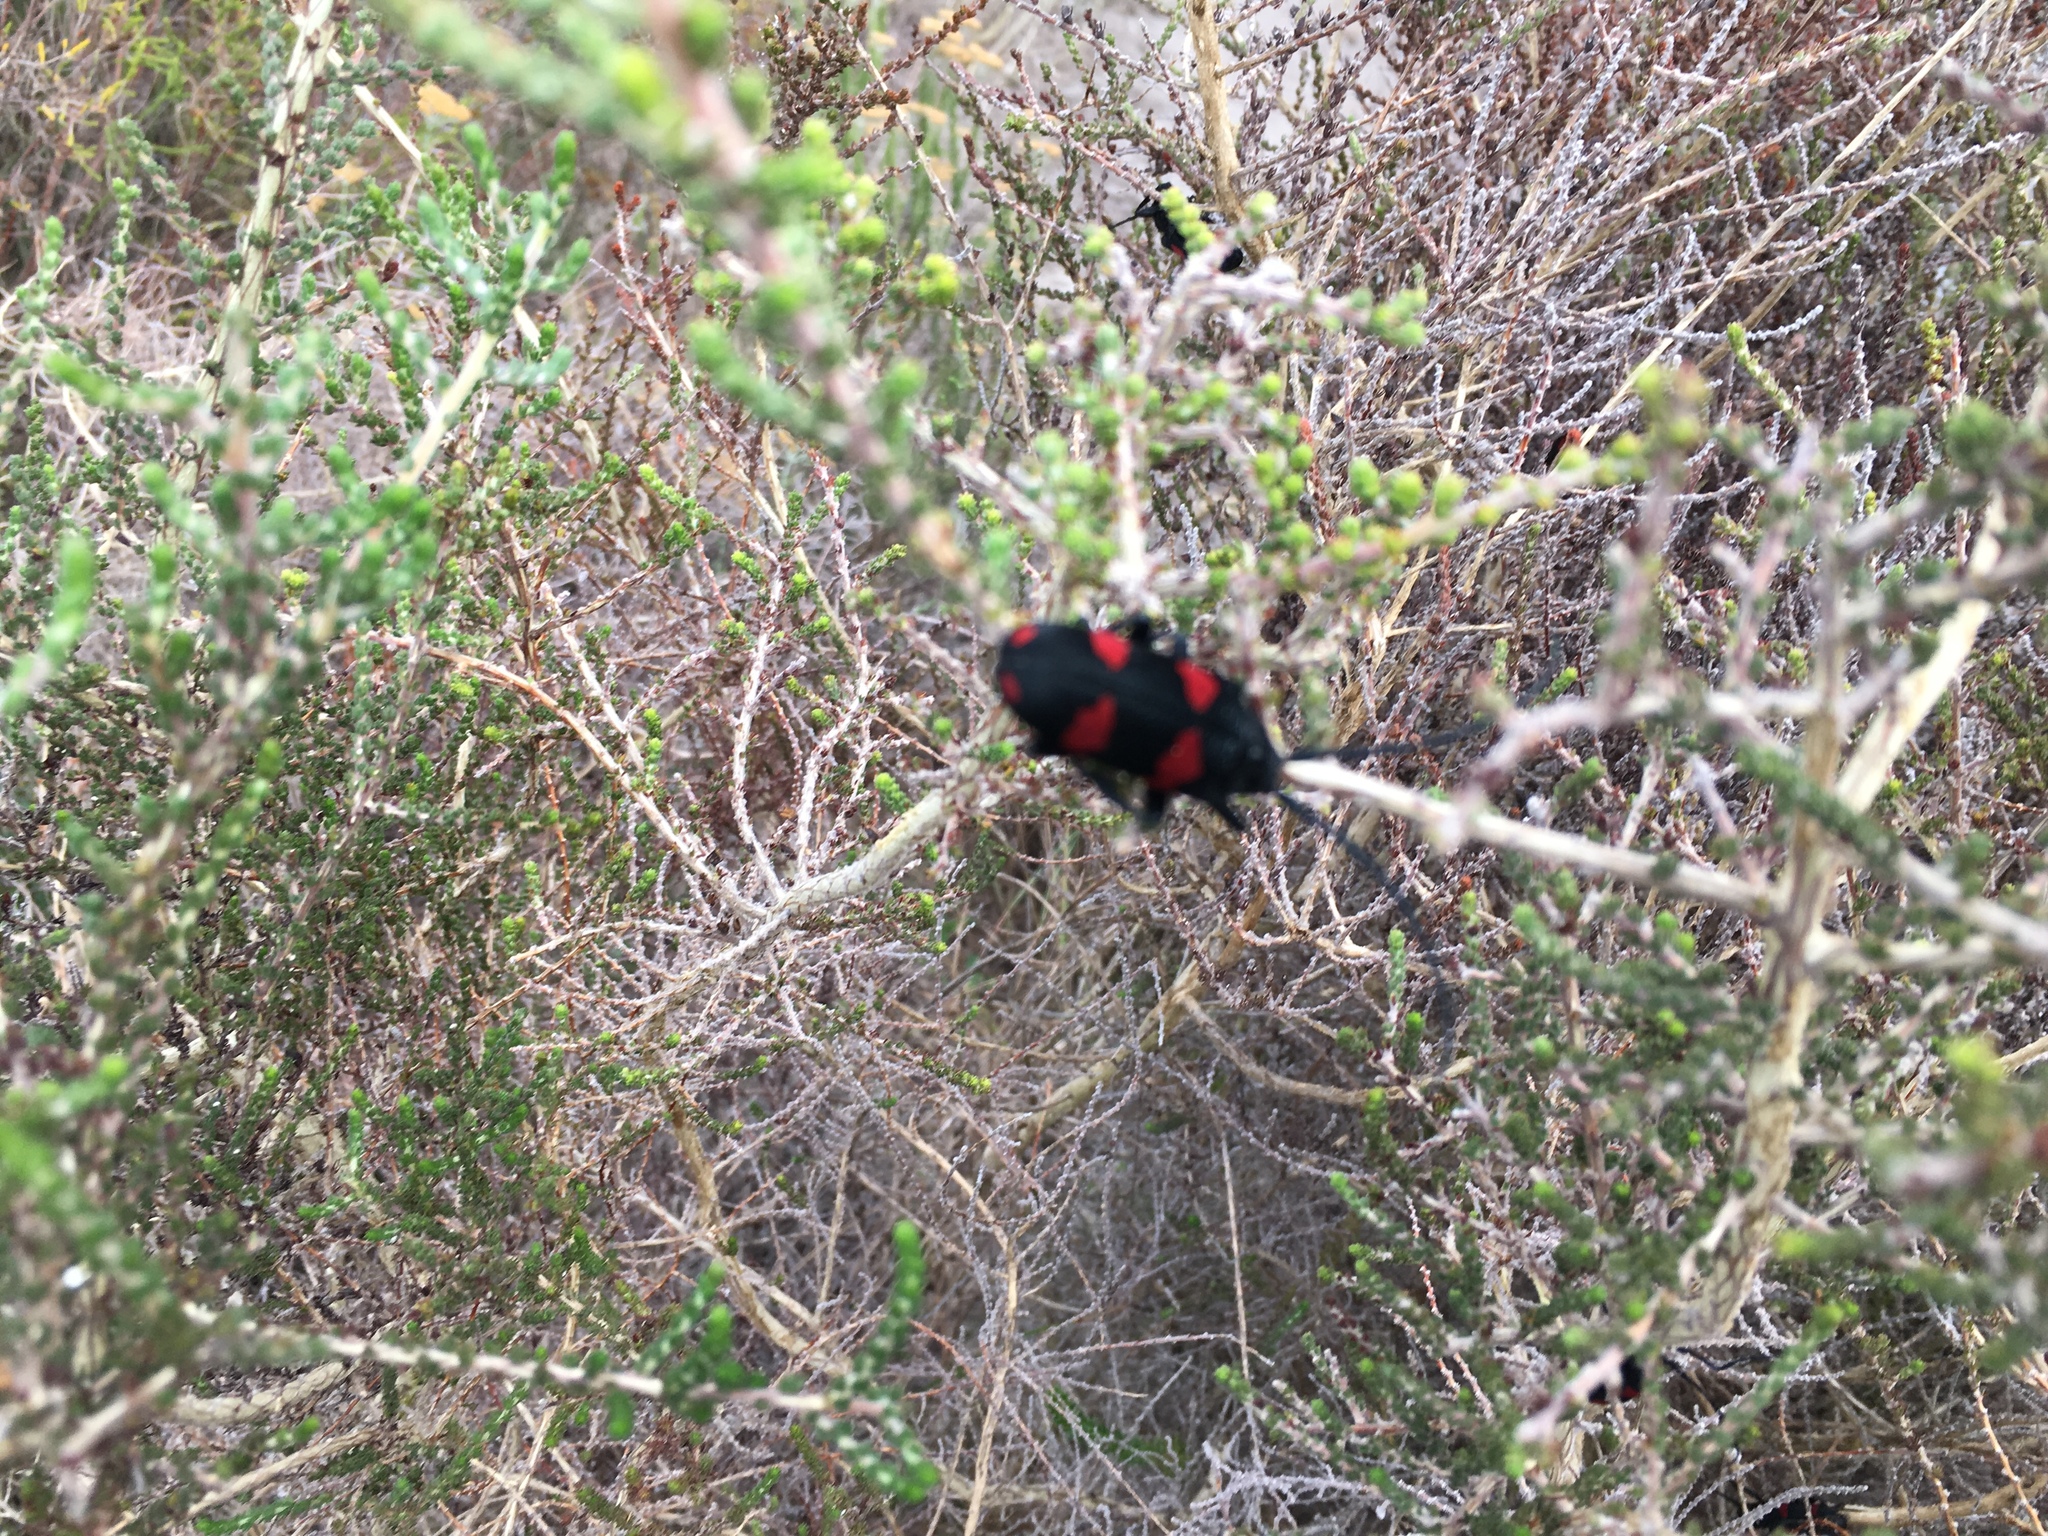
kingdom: Animalia
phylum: Arthropoda
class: Insecta
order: Coleoptera
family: Cerambycidae
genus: Ceroplesis
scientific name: Ceroplesis aethiops
